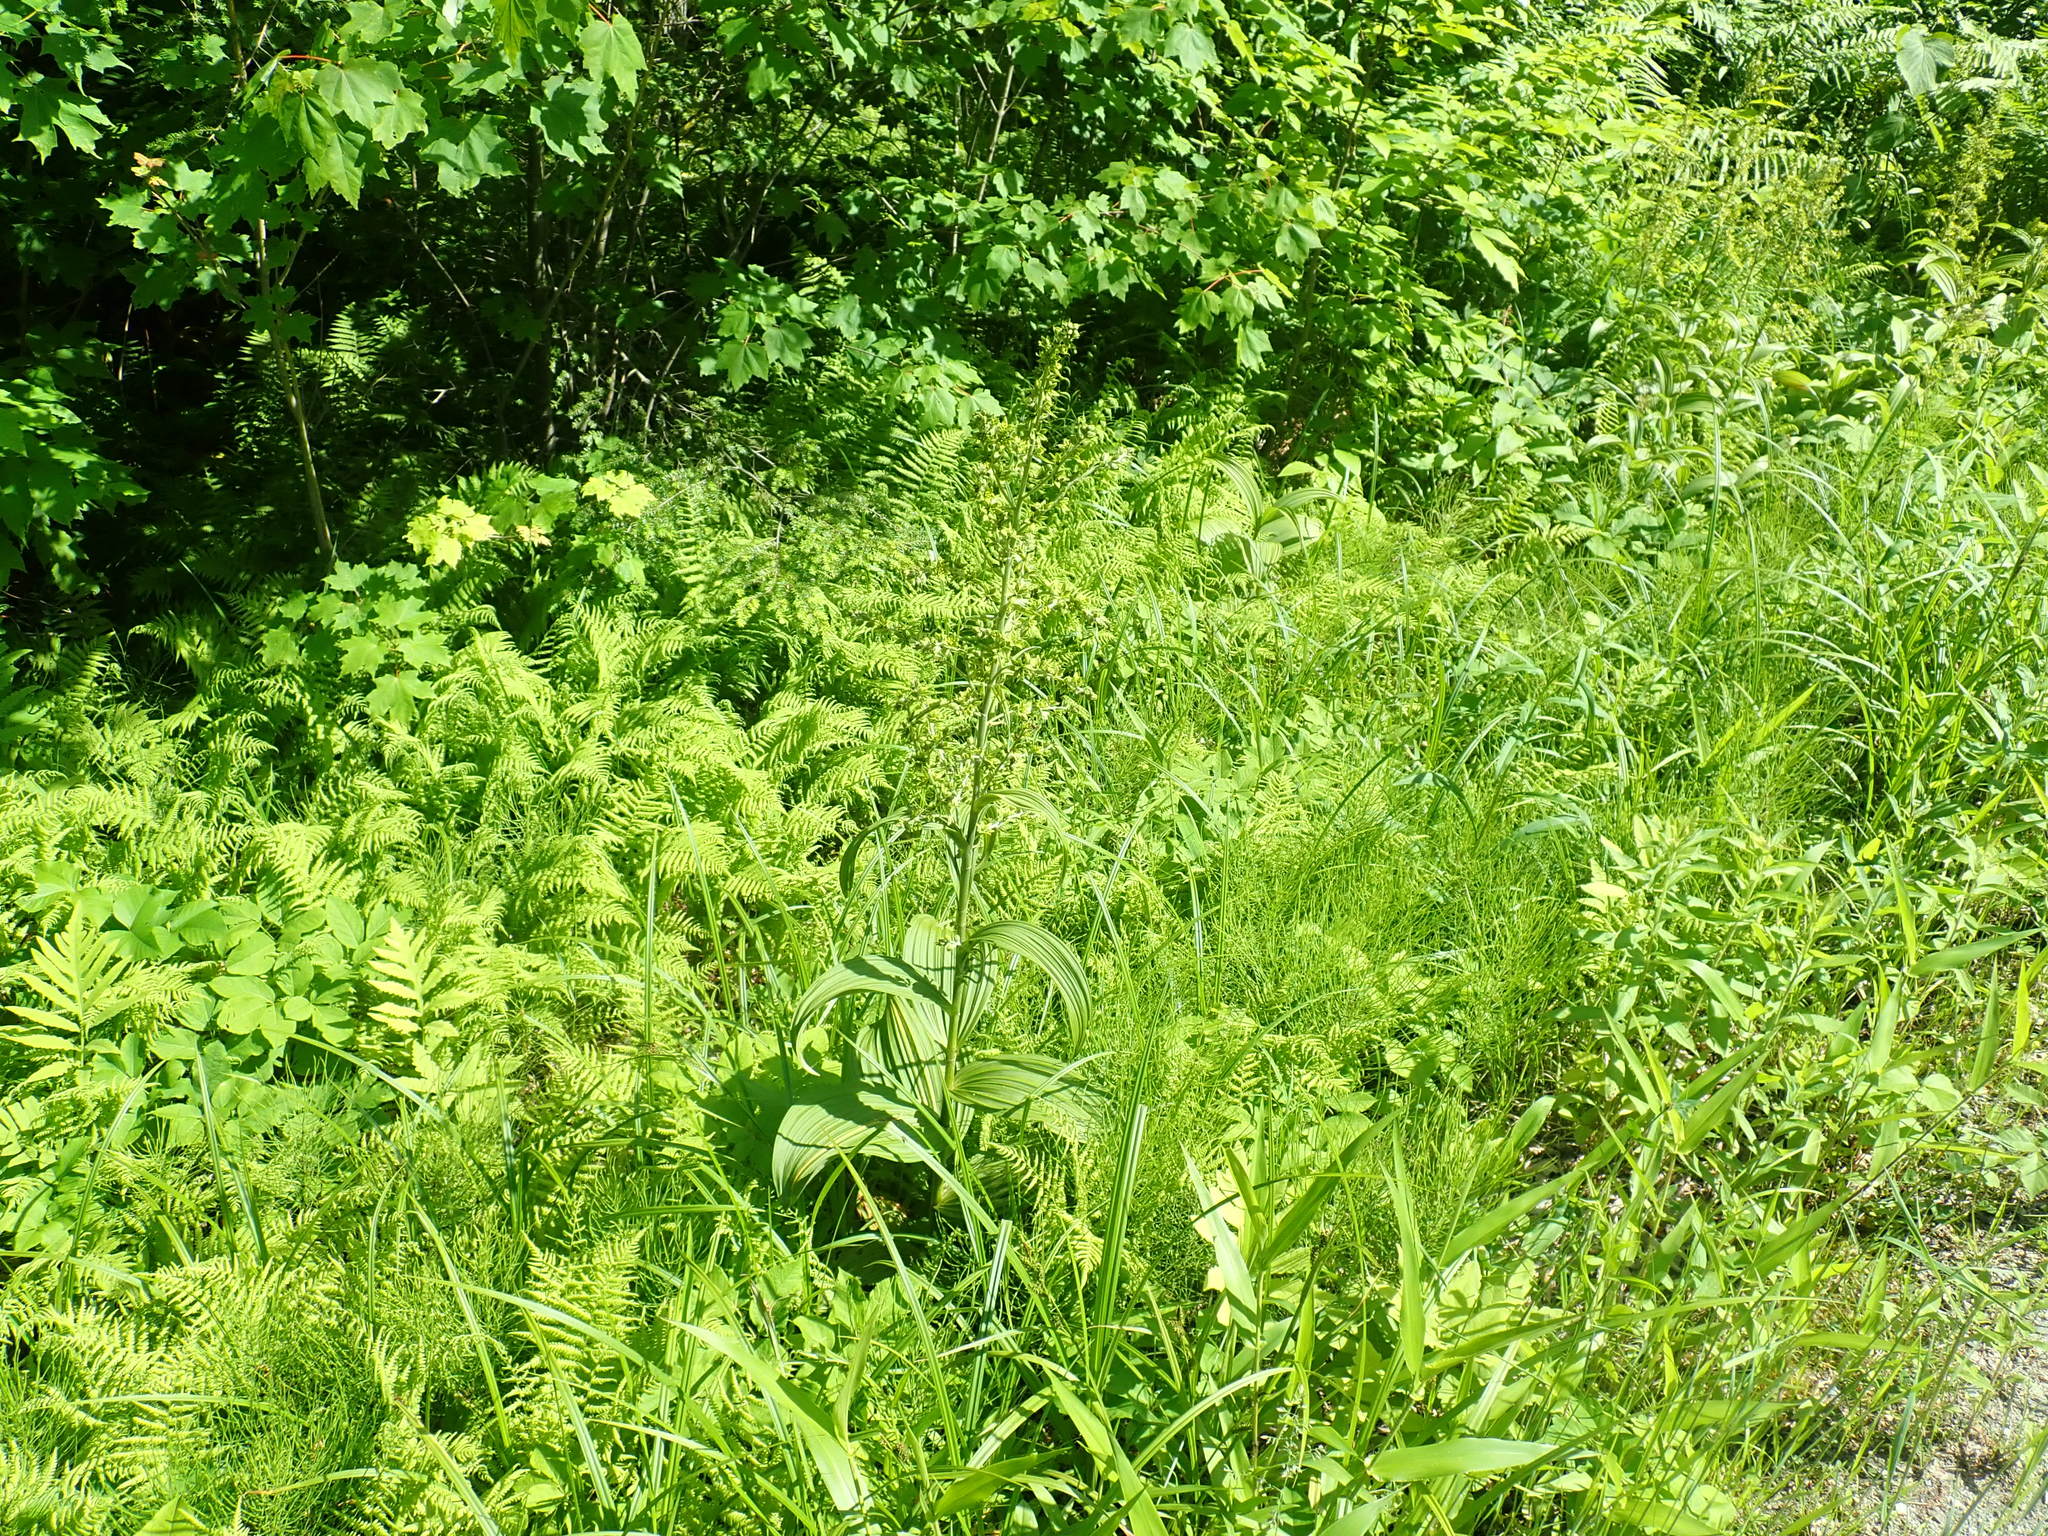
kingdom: Plantae
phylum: Tracheophyta
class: Liliopsida
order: Liliales
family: Melanthiaceae
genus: Veratrum
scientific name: Veratrum viride
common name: American false hellebore
